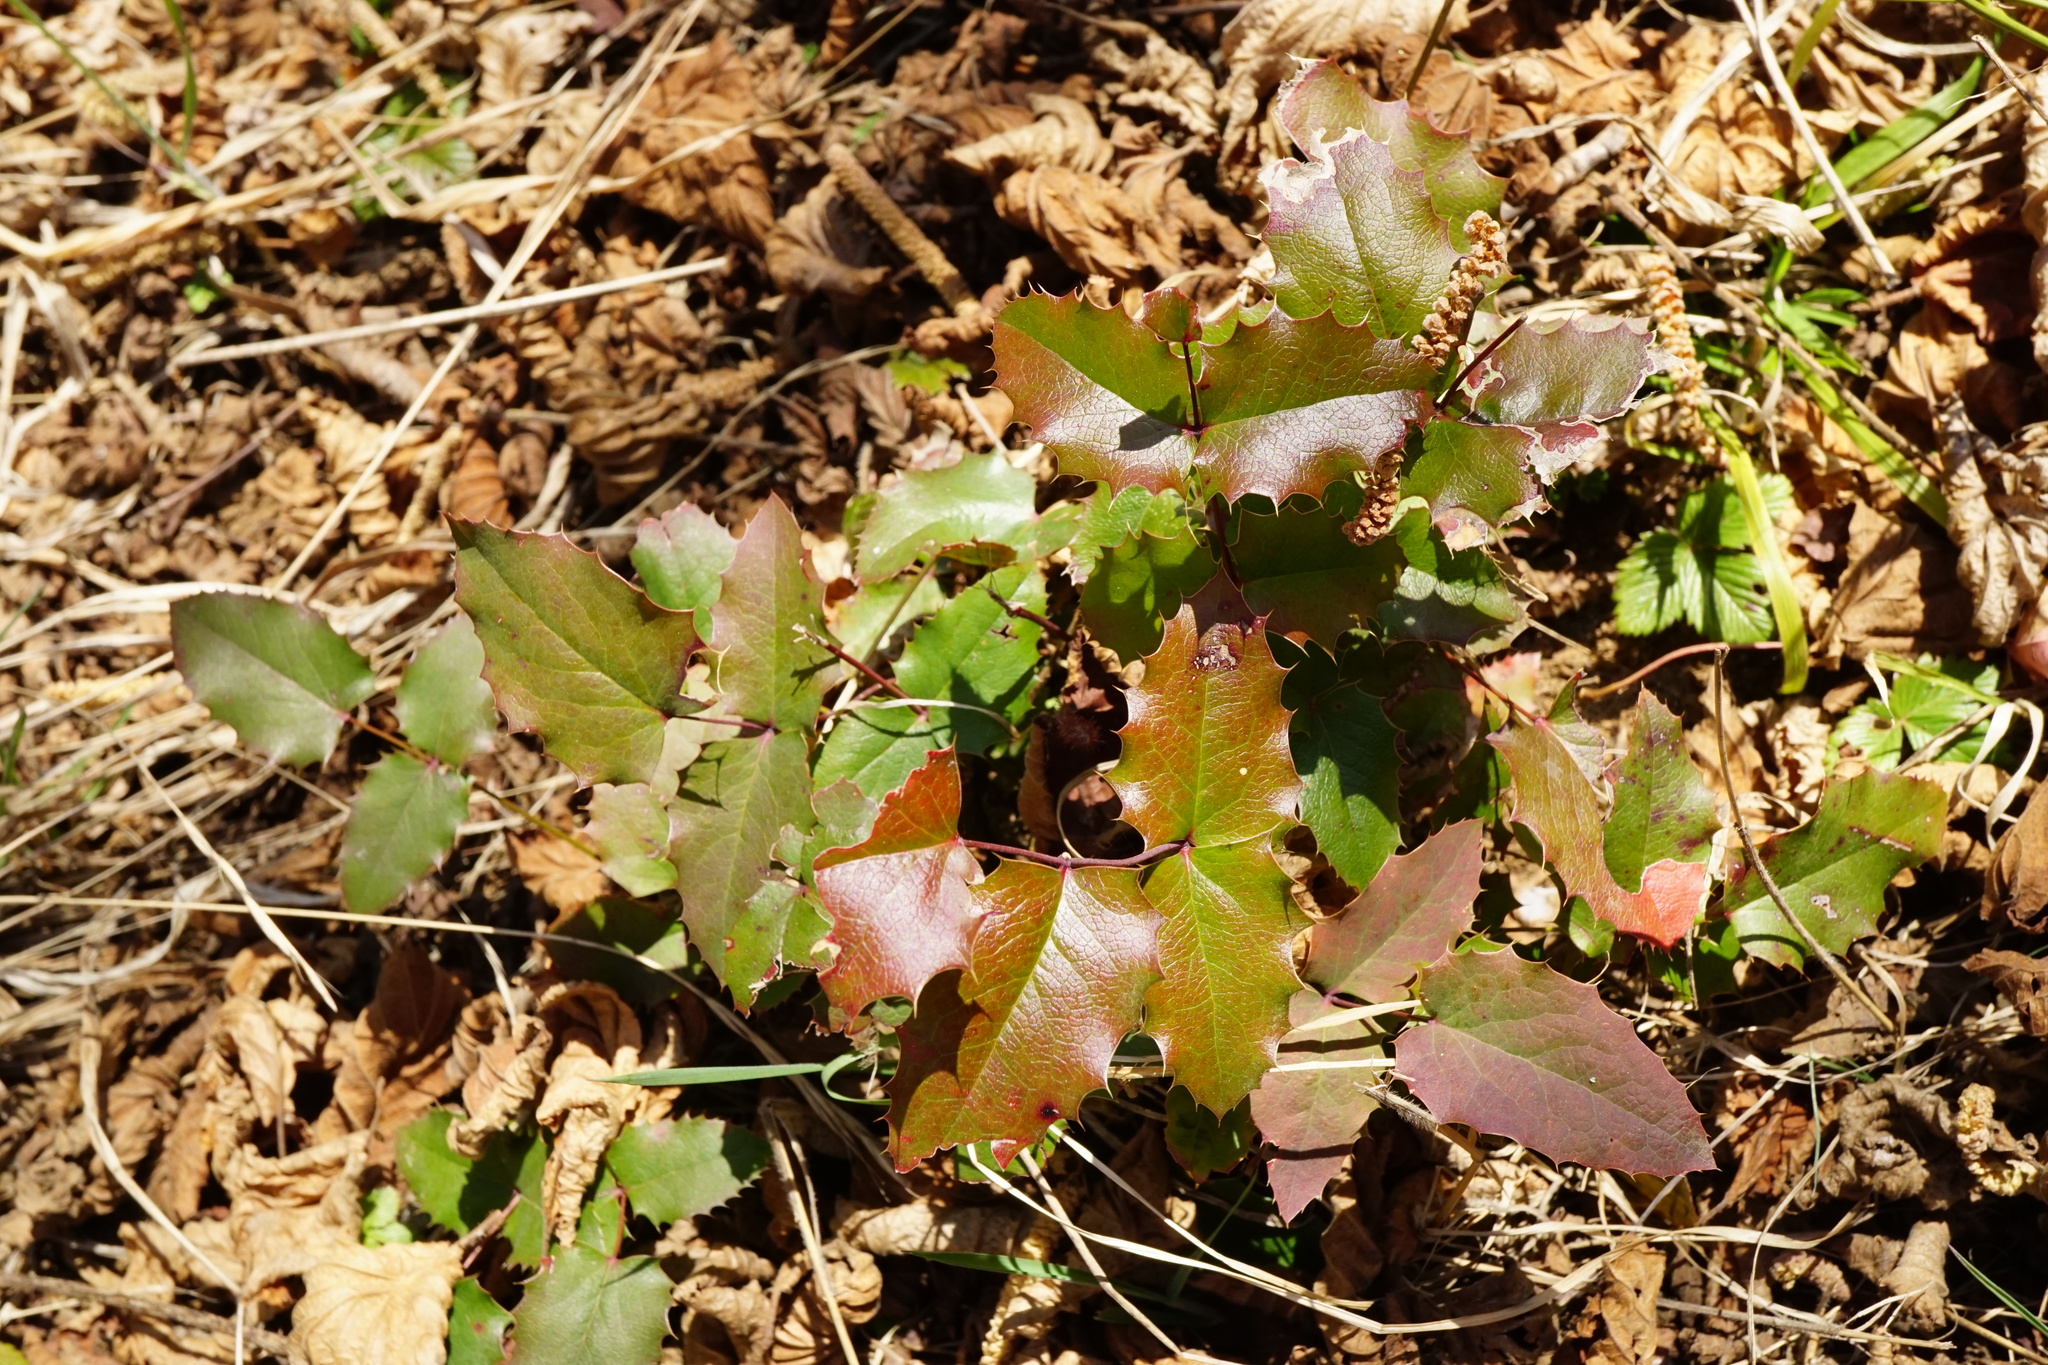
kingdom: Plantae
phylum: Tracheophyta
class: Magnoliopsida
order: Ranunculales
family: Berberidaceae
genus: Mahonia
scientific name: Mahonia aquifolium
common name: Oregon-grape
